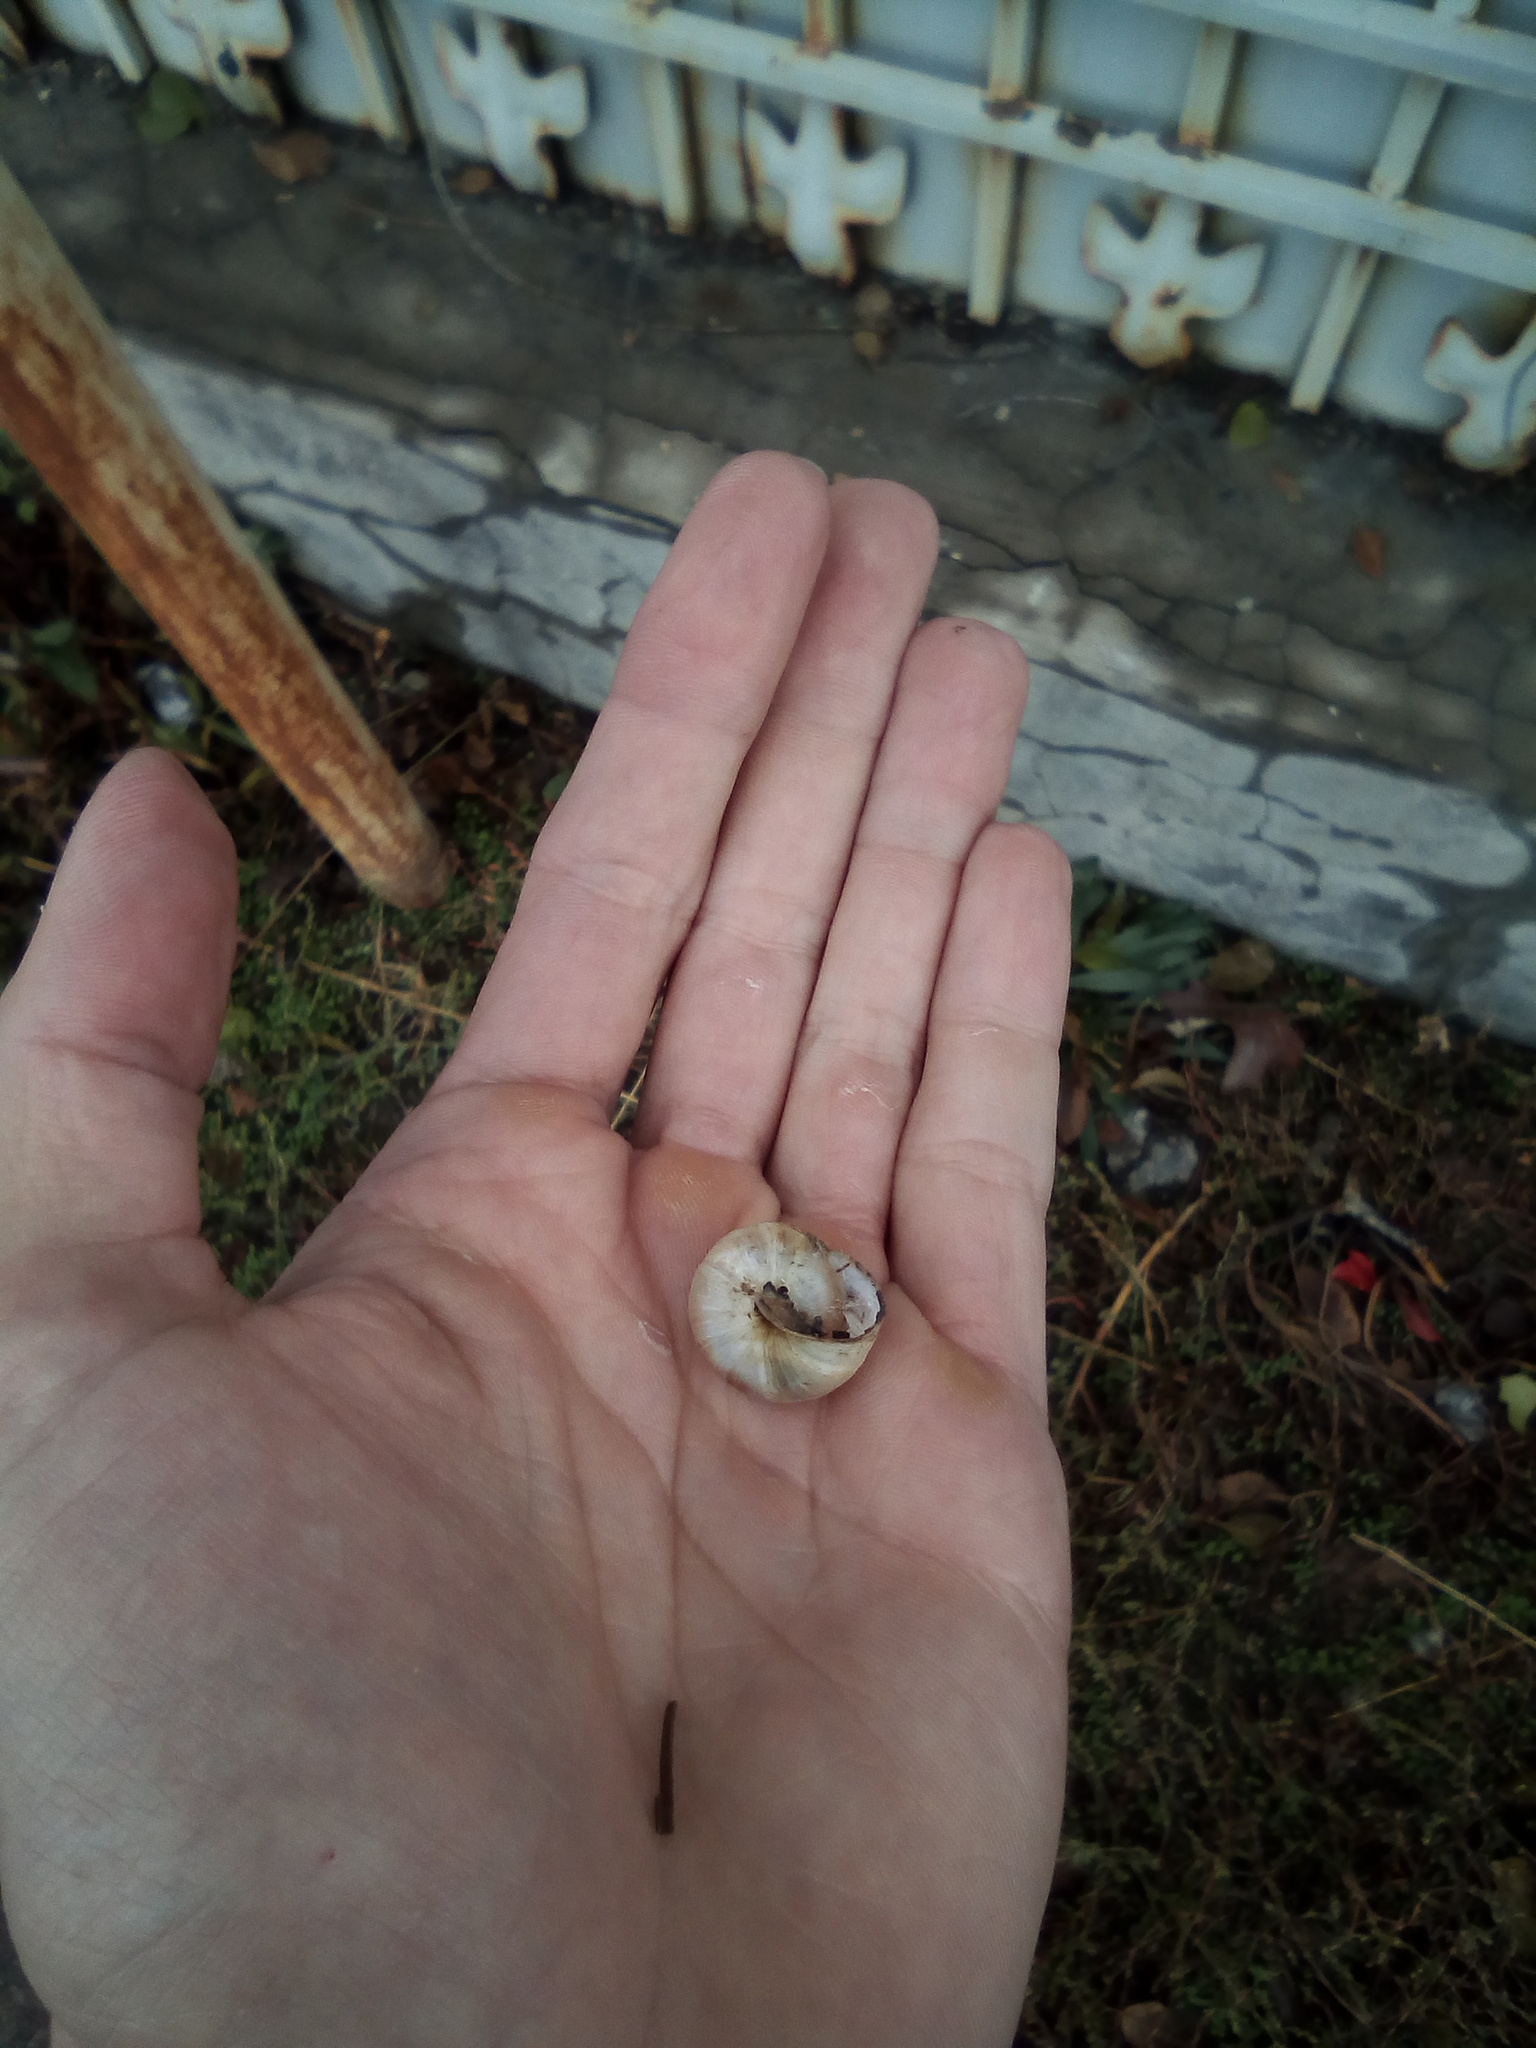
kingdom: Animalia
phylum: Mollusca
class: Gastropoda
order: Stylommatophora
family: Camaenidae
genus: Fruticicola
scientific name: Fruticicola lantzi
